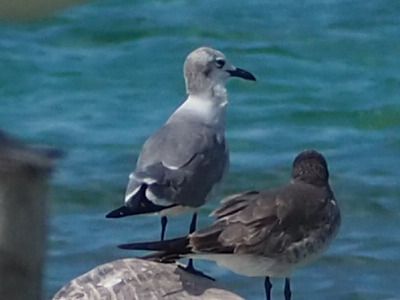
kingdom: Animalia
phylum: Chordata
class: Aves
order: Charadriiformes
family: Laridae
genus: Leucophaeus
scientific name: Leucophaeus atricilla
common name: Laughing gull
